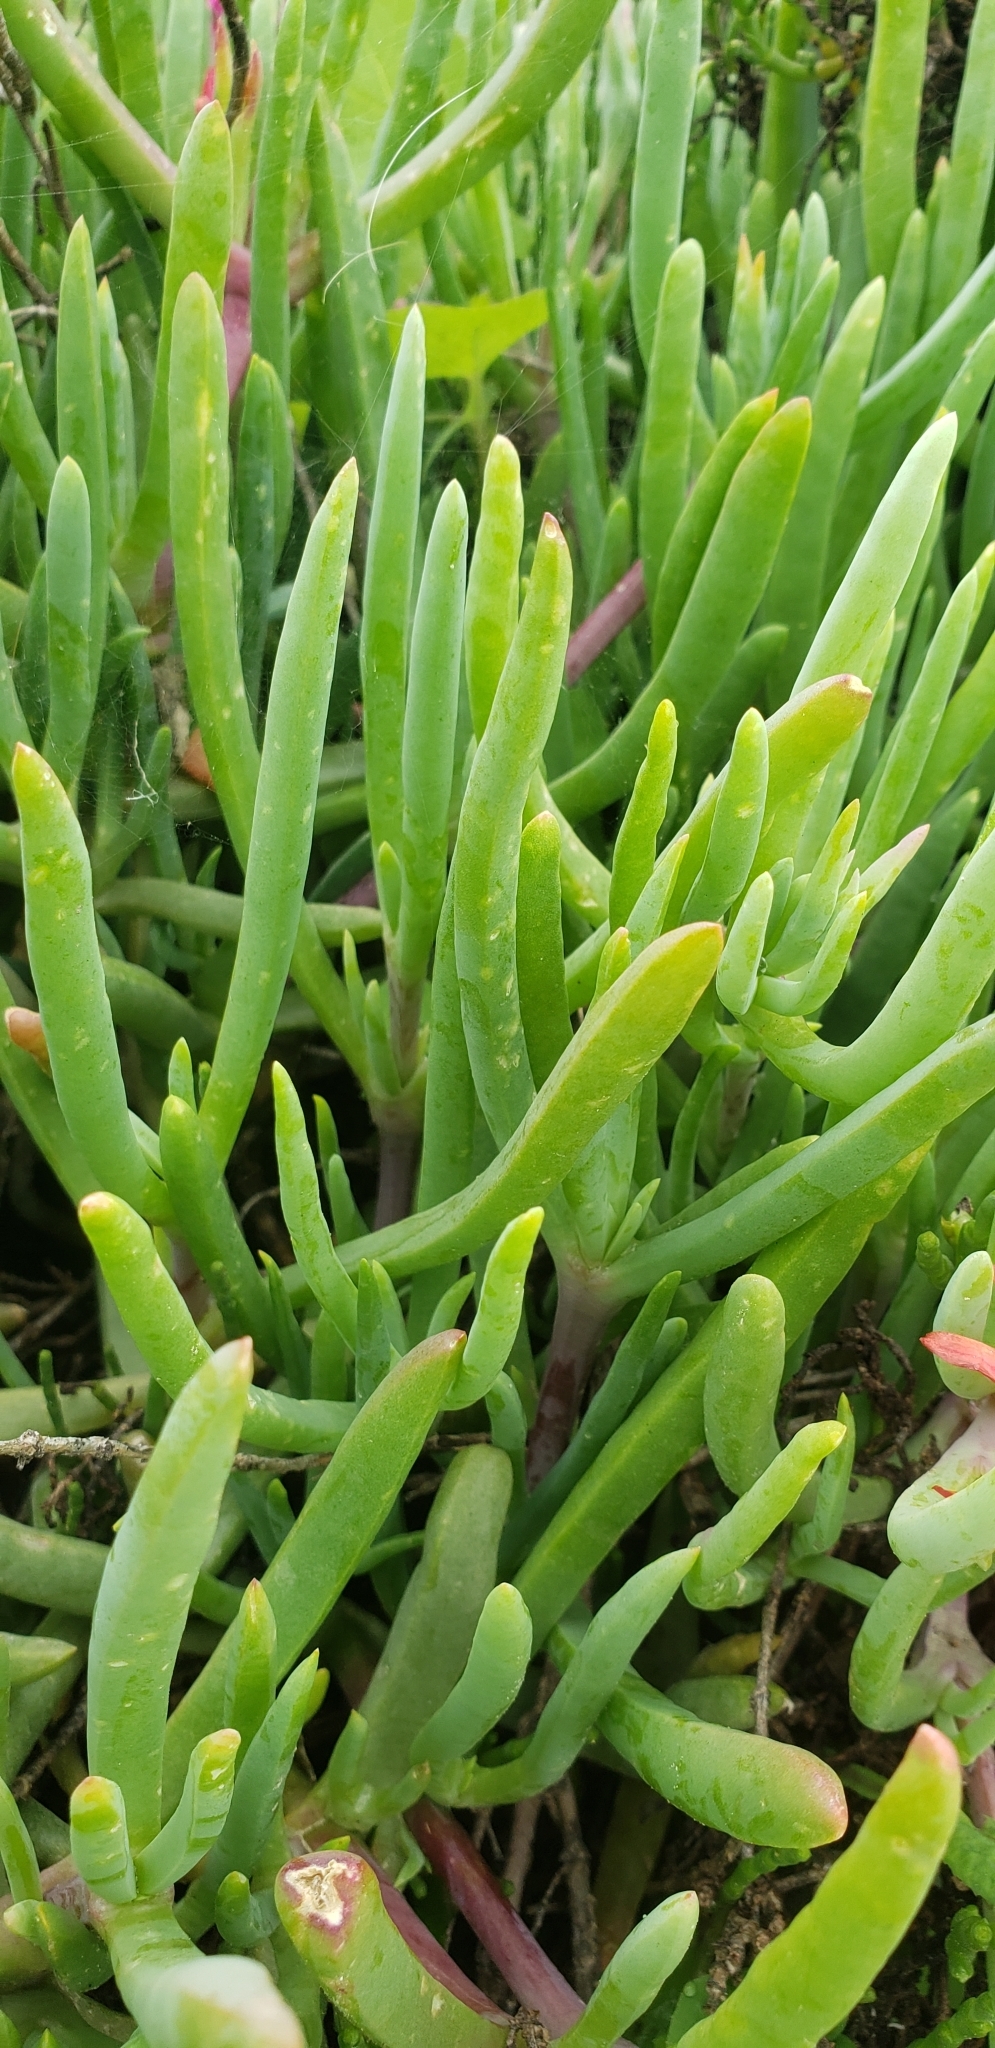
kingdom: Plantae
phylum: Tracheophyta
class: Magnoliopsida
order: Caryophyllales
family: Aizoaceae
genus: Malephora
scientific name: Malephora crocea
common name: Coppery mesemb
